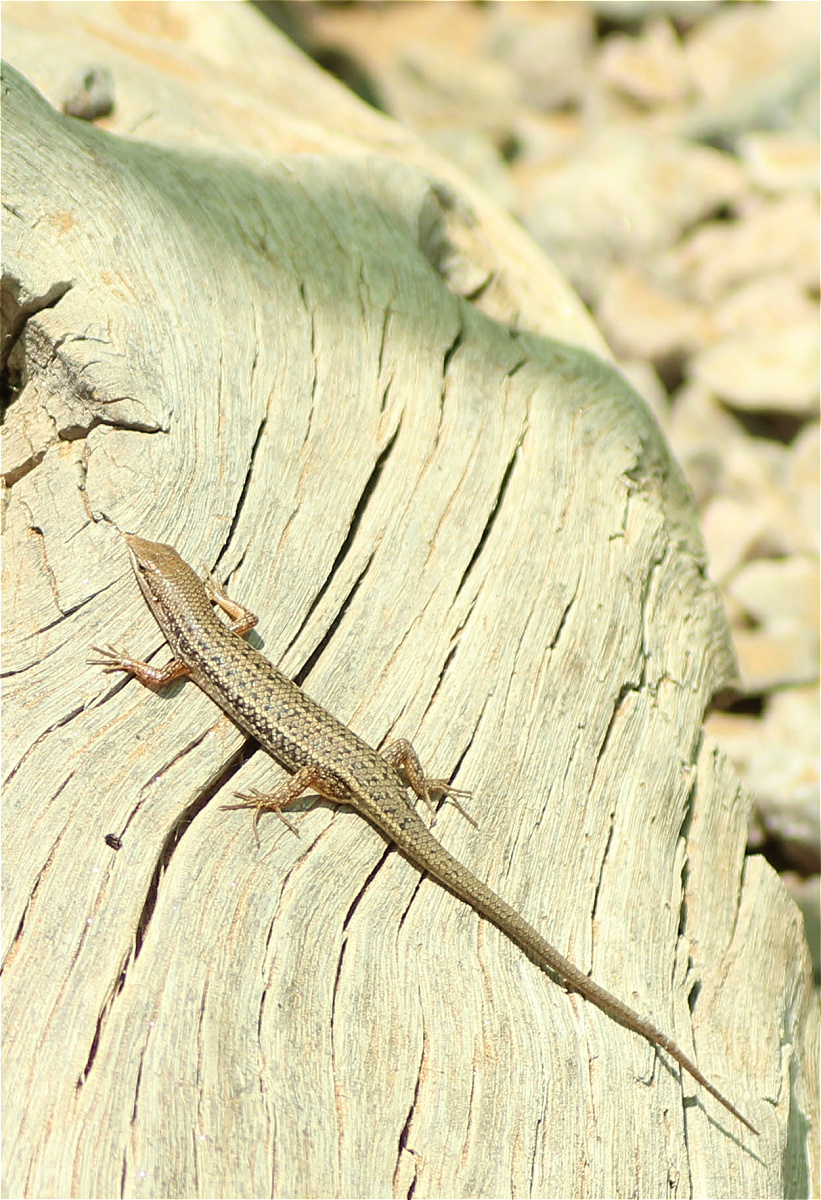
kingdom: Animalia
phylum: Chordata
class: Squamata
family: Scincidae
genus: Trachylepis
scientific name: Trachylepis variegata
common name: Variegated skink
